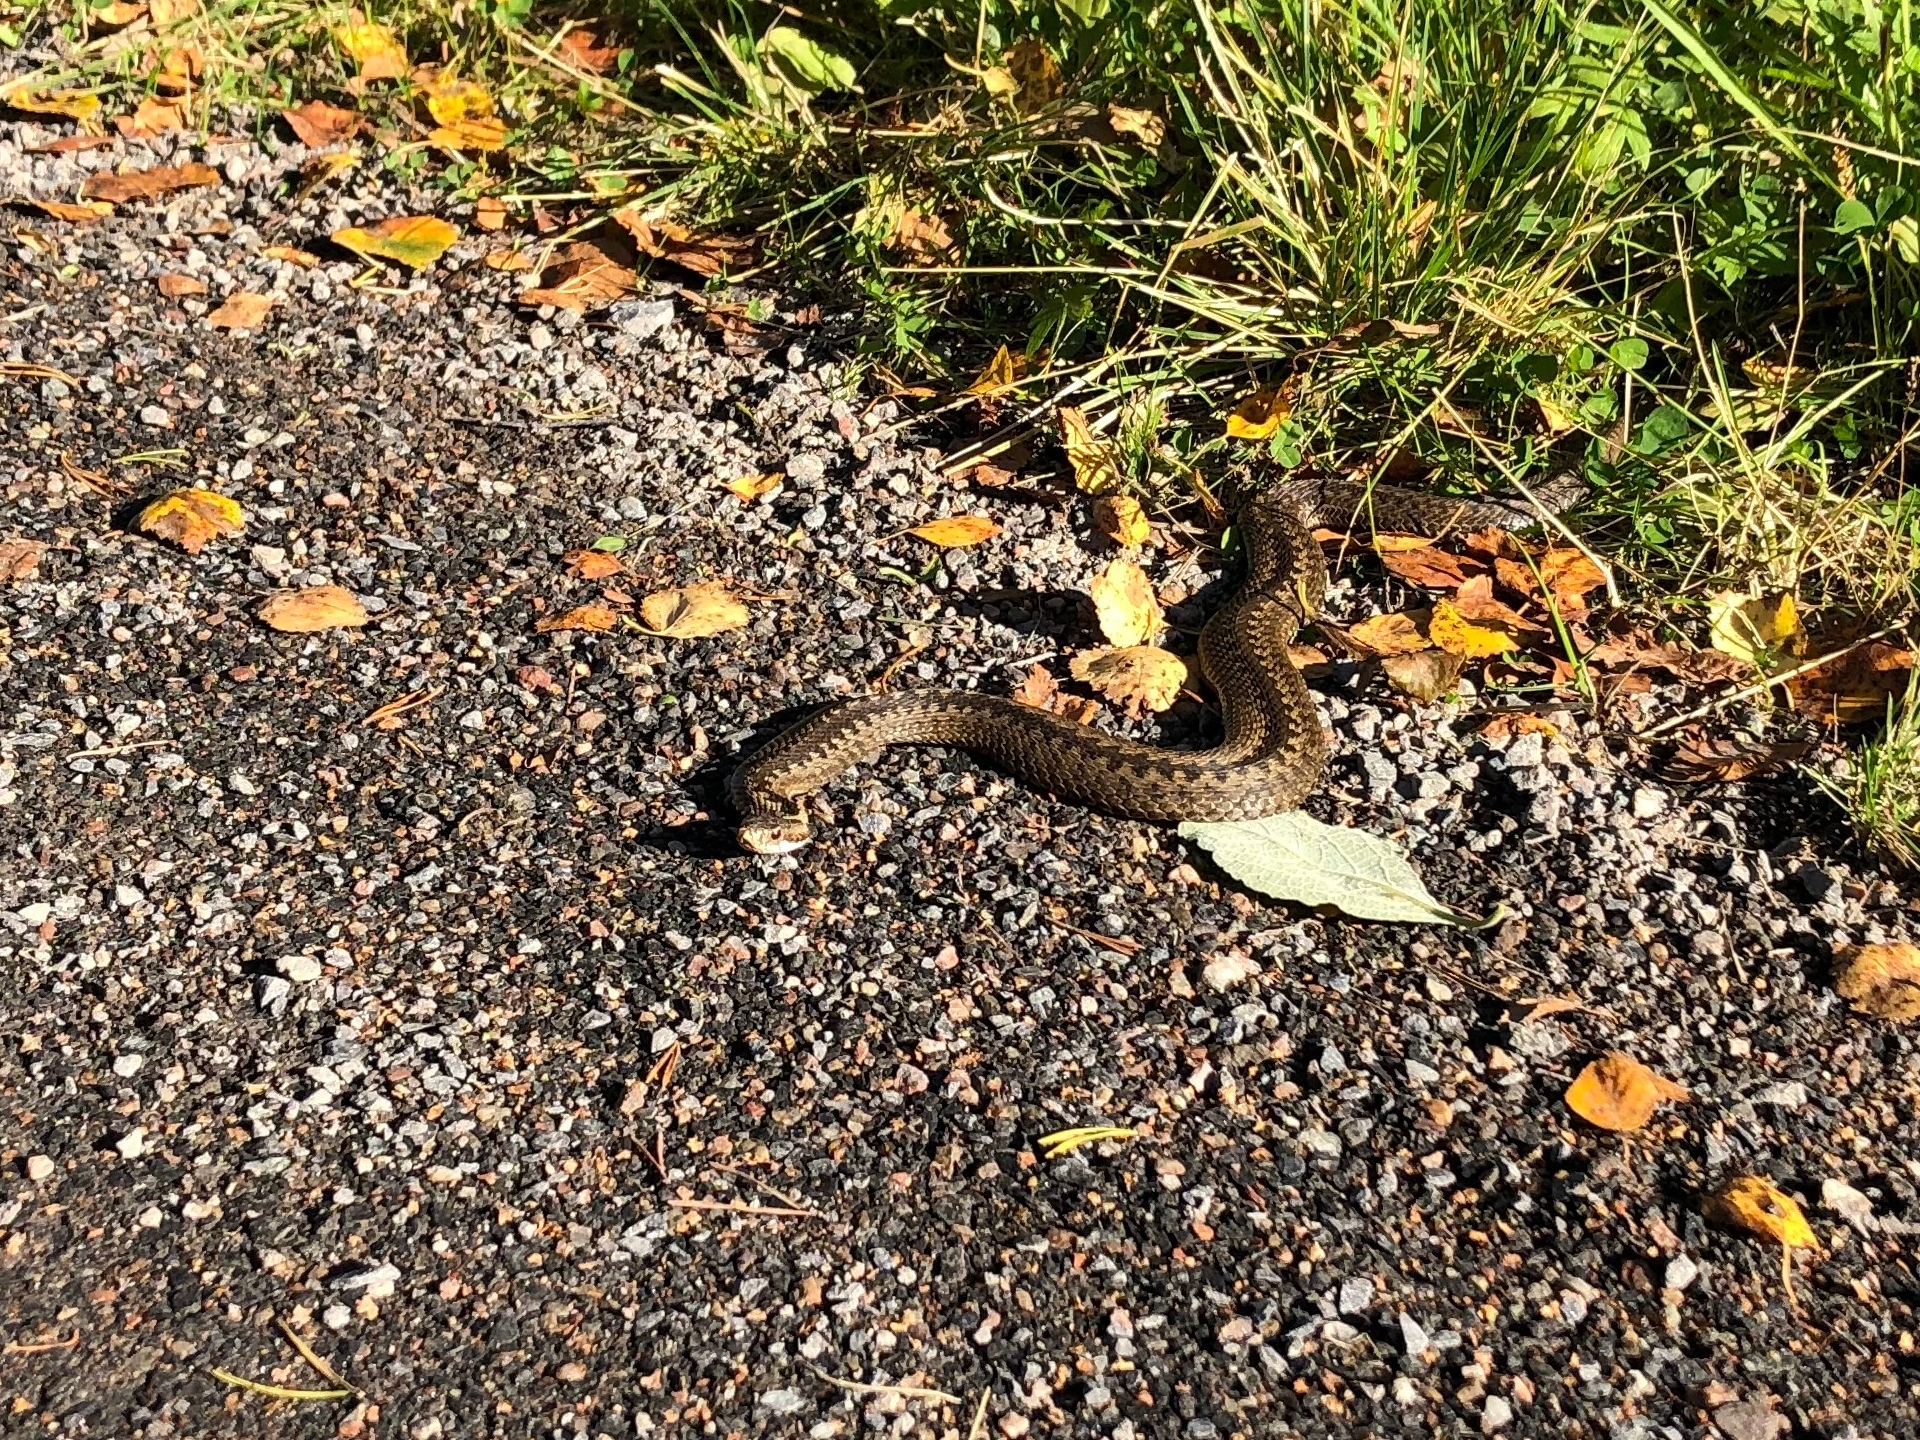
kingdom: Animalia
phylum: Chordata
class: Squamata
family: Viperidae
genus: Vipera
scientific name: Vipera berus
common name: Adder
